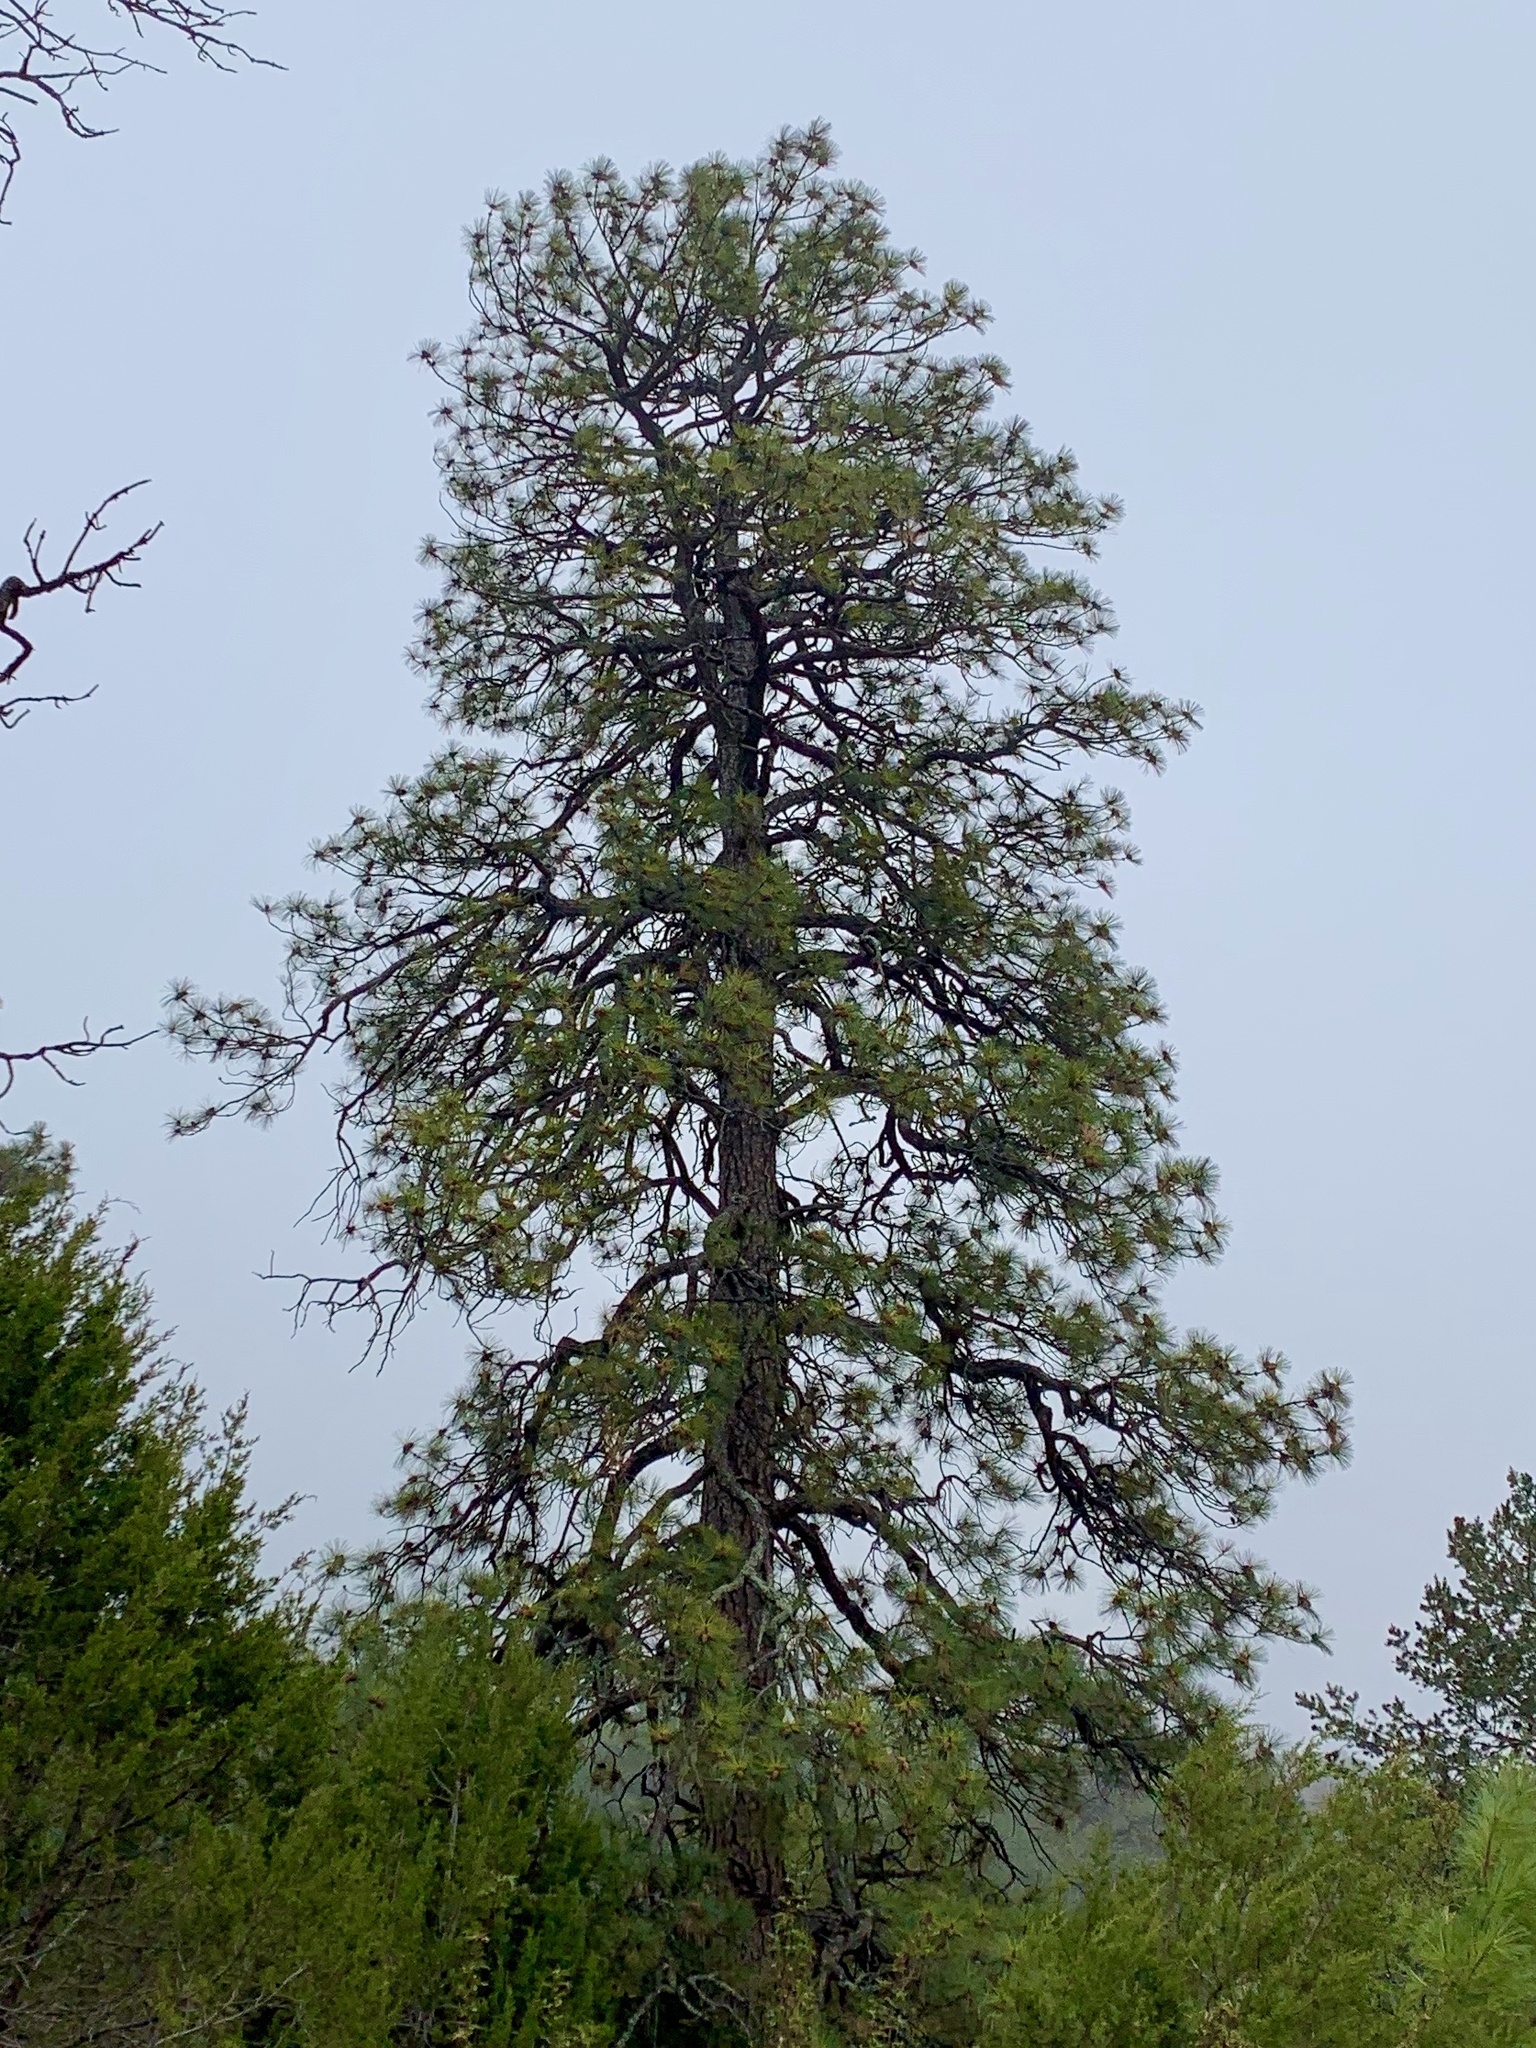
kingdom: Plantae
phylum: Tracheophyta
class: Pinopsida
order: Pinales
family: Pinaceae
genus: Pinus
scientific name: Pinus ponderosa
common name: Western yellow-pine
